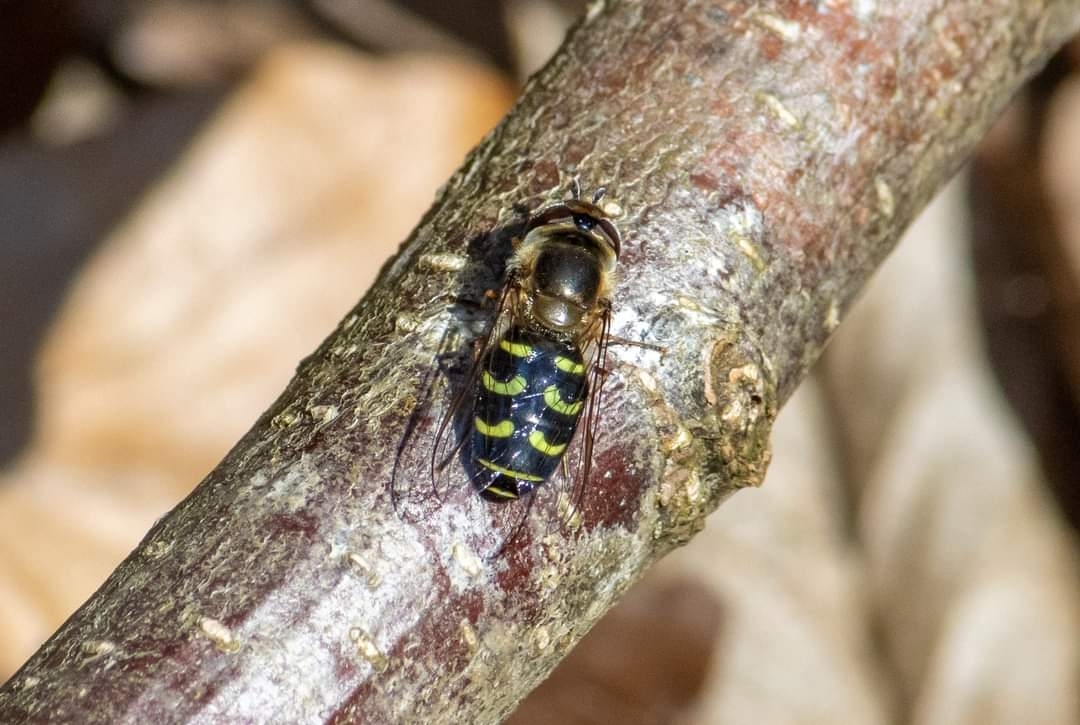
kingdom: Animalia
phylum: Arthropoda
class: Insecta
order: Diptera
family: Syrphidae
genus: Scaeva
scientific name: Scaeva selenitica
